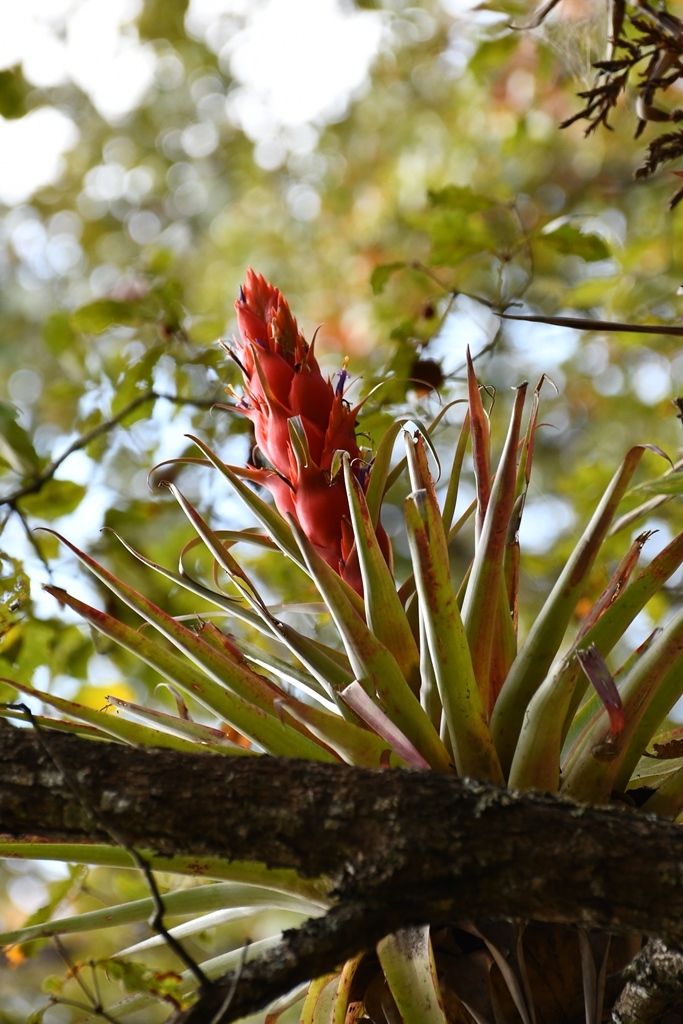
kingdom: Plantae
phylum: Tracheophyta
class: Liliopsida
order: Poales
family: Bromeliaceae
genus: Tillandsia
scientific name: Tillandsia ponderosa
